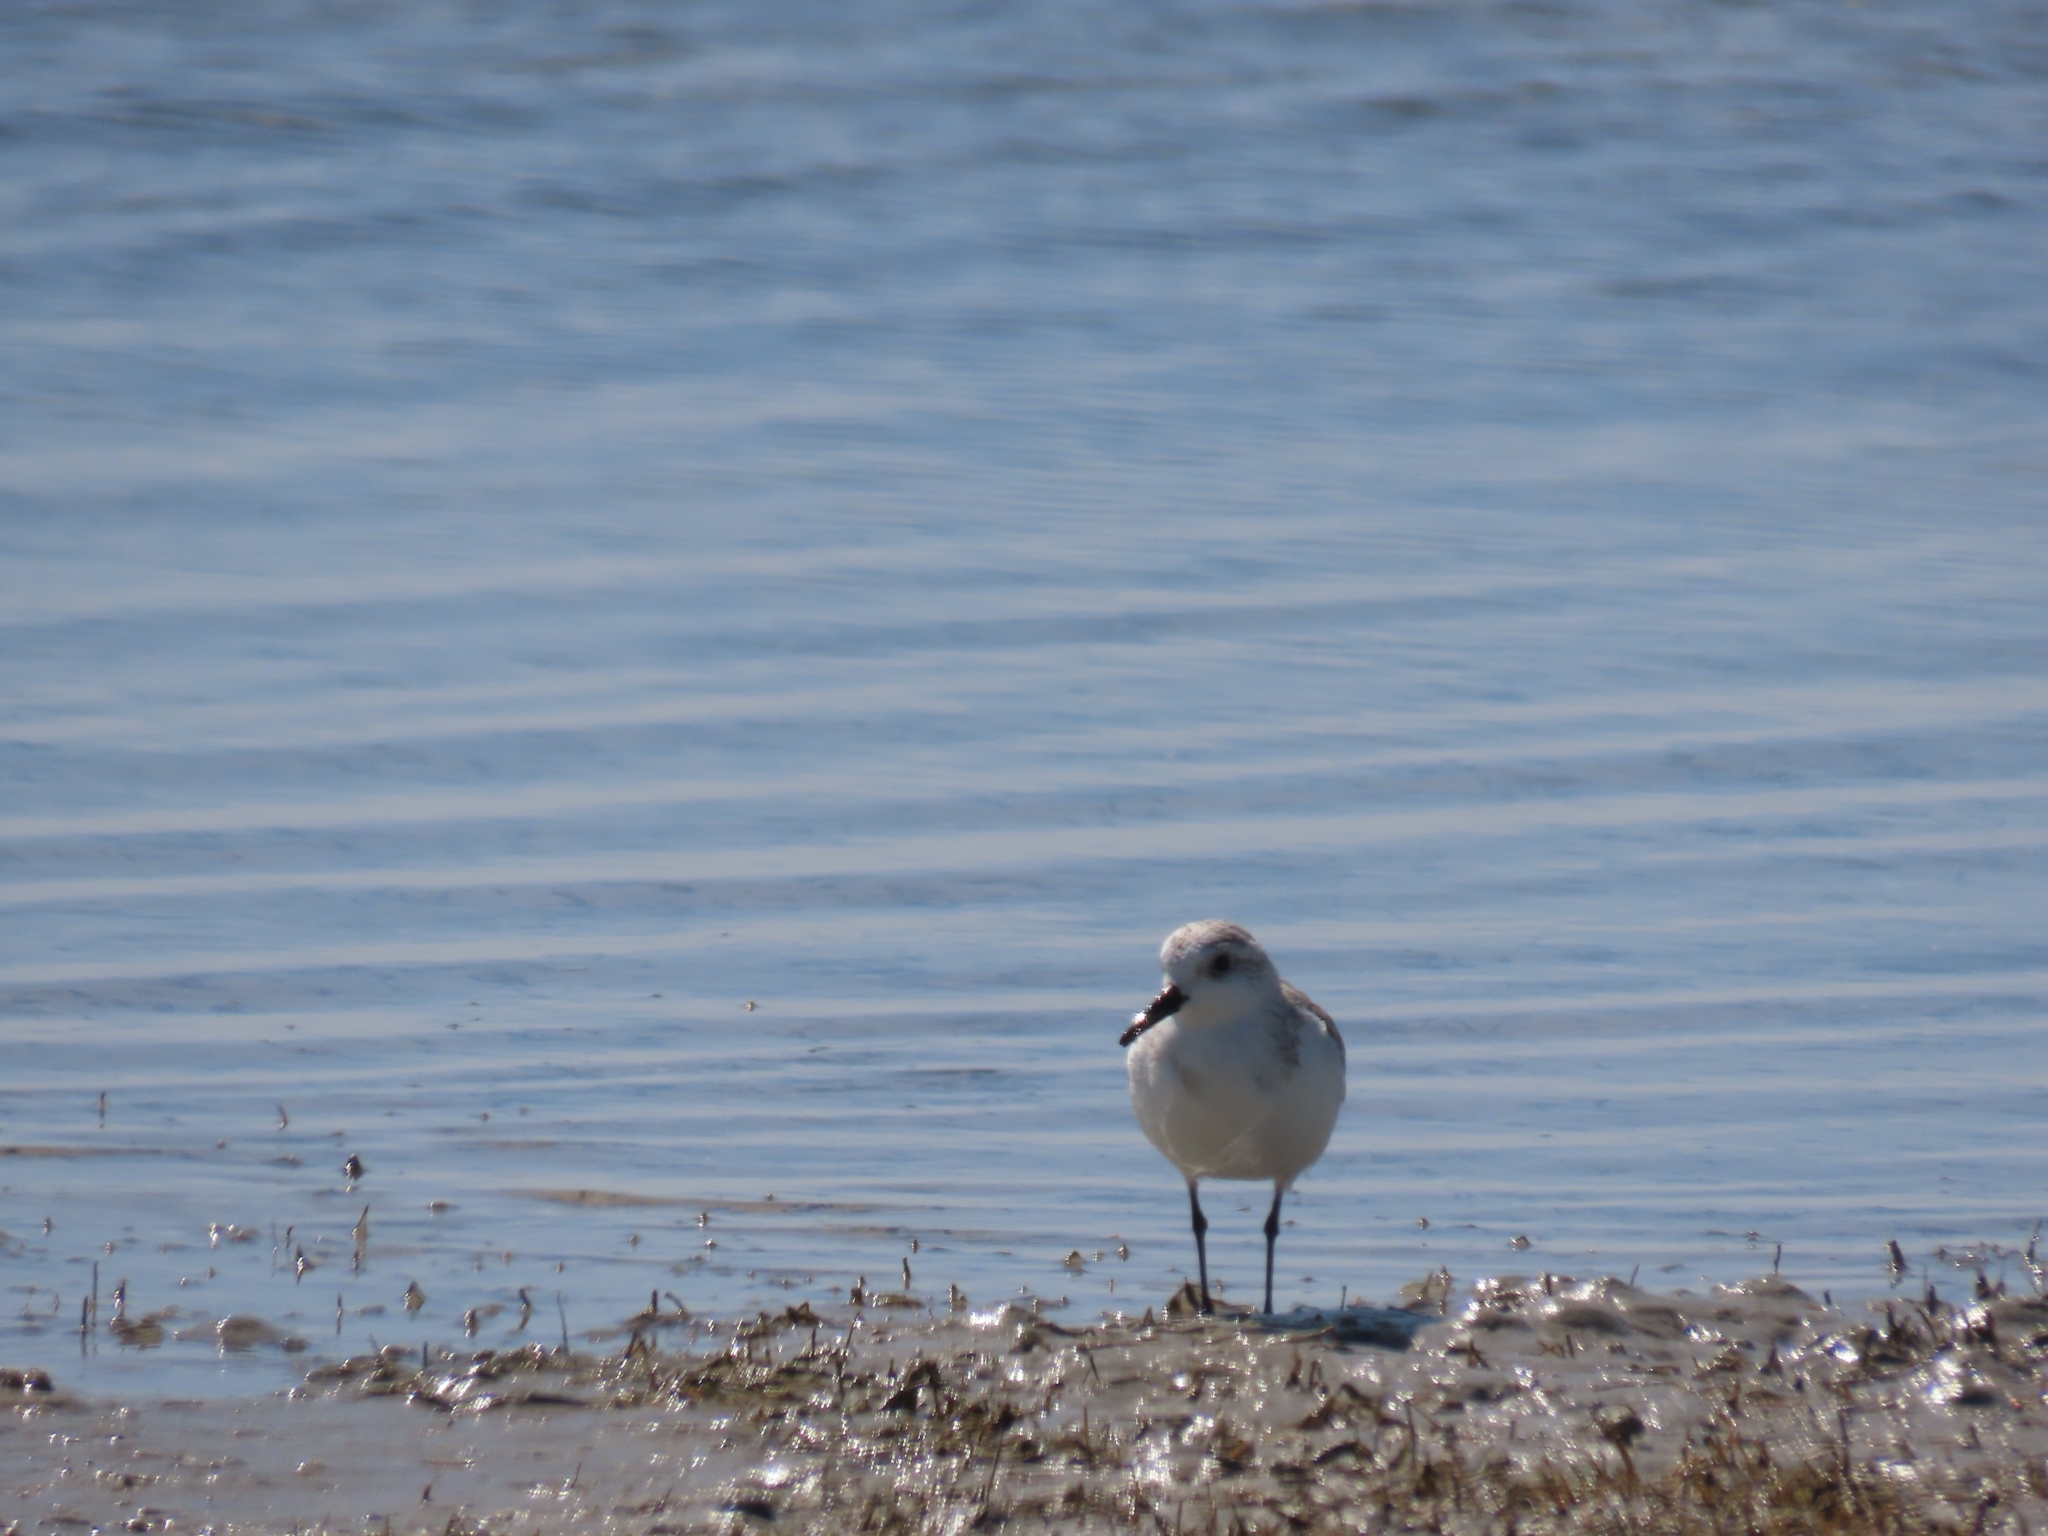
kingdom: Animalia
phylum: Chordata
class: Aves
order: Charadriiformes
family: Scolopacidae
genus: Calidris
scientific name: Calidris alba
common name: Sanderling
